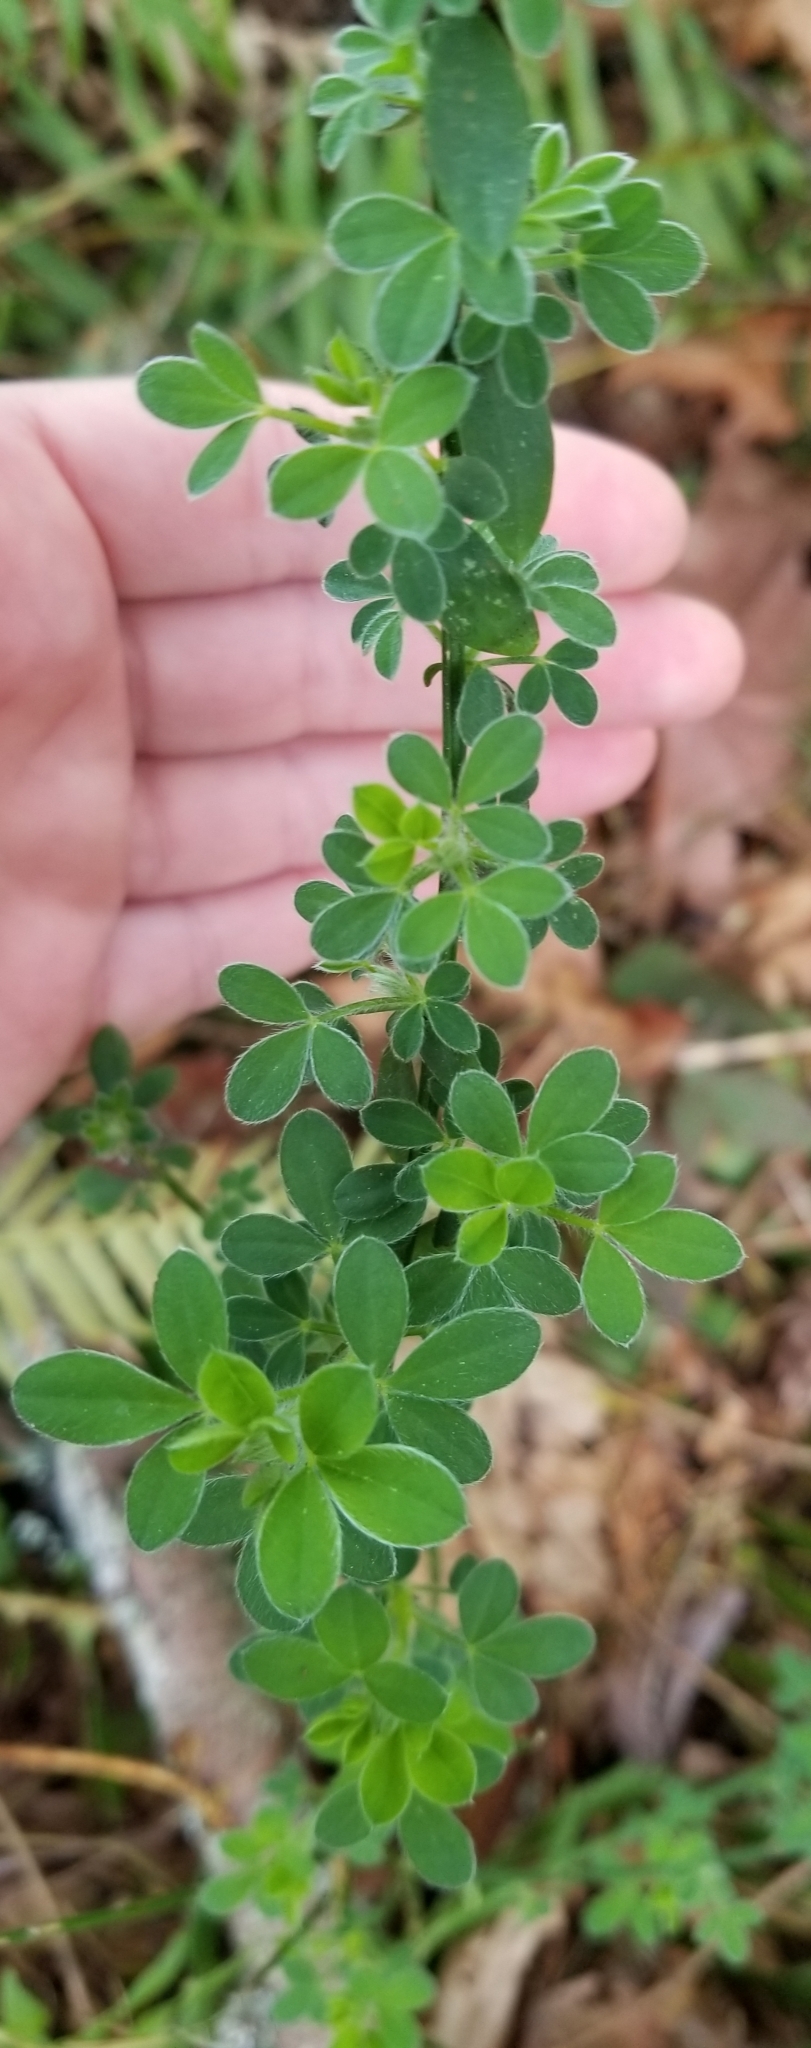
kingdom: Plantae
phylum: Tracheophyta
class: Magnoliopsida
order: Fabales
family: Fabaceae
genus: Cytisus
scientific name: Cytisus scoparius
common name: Scotch broom
